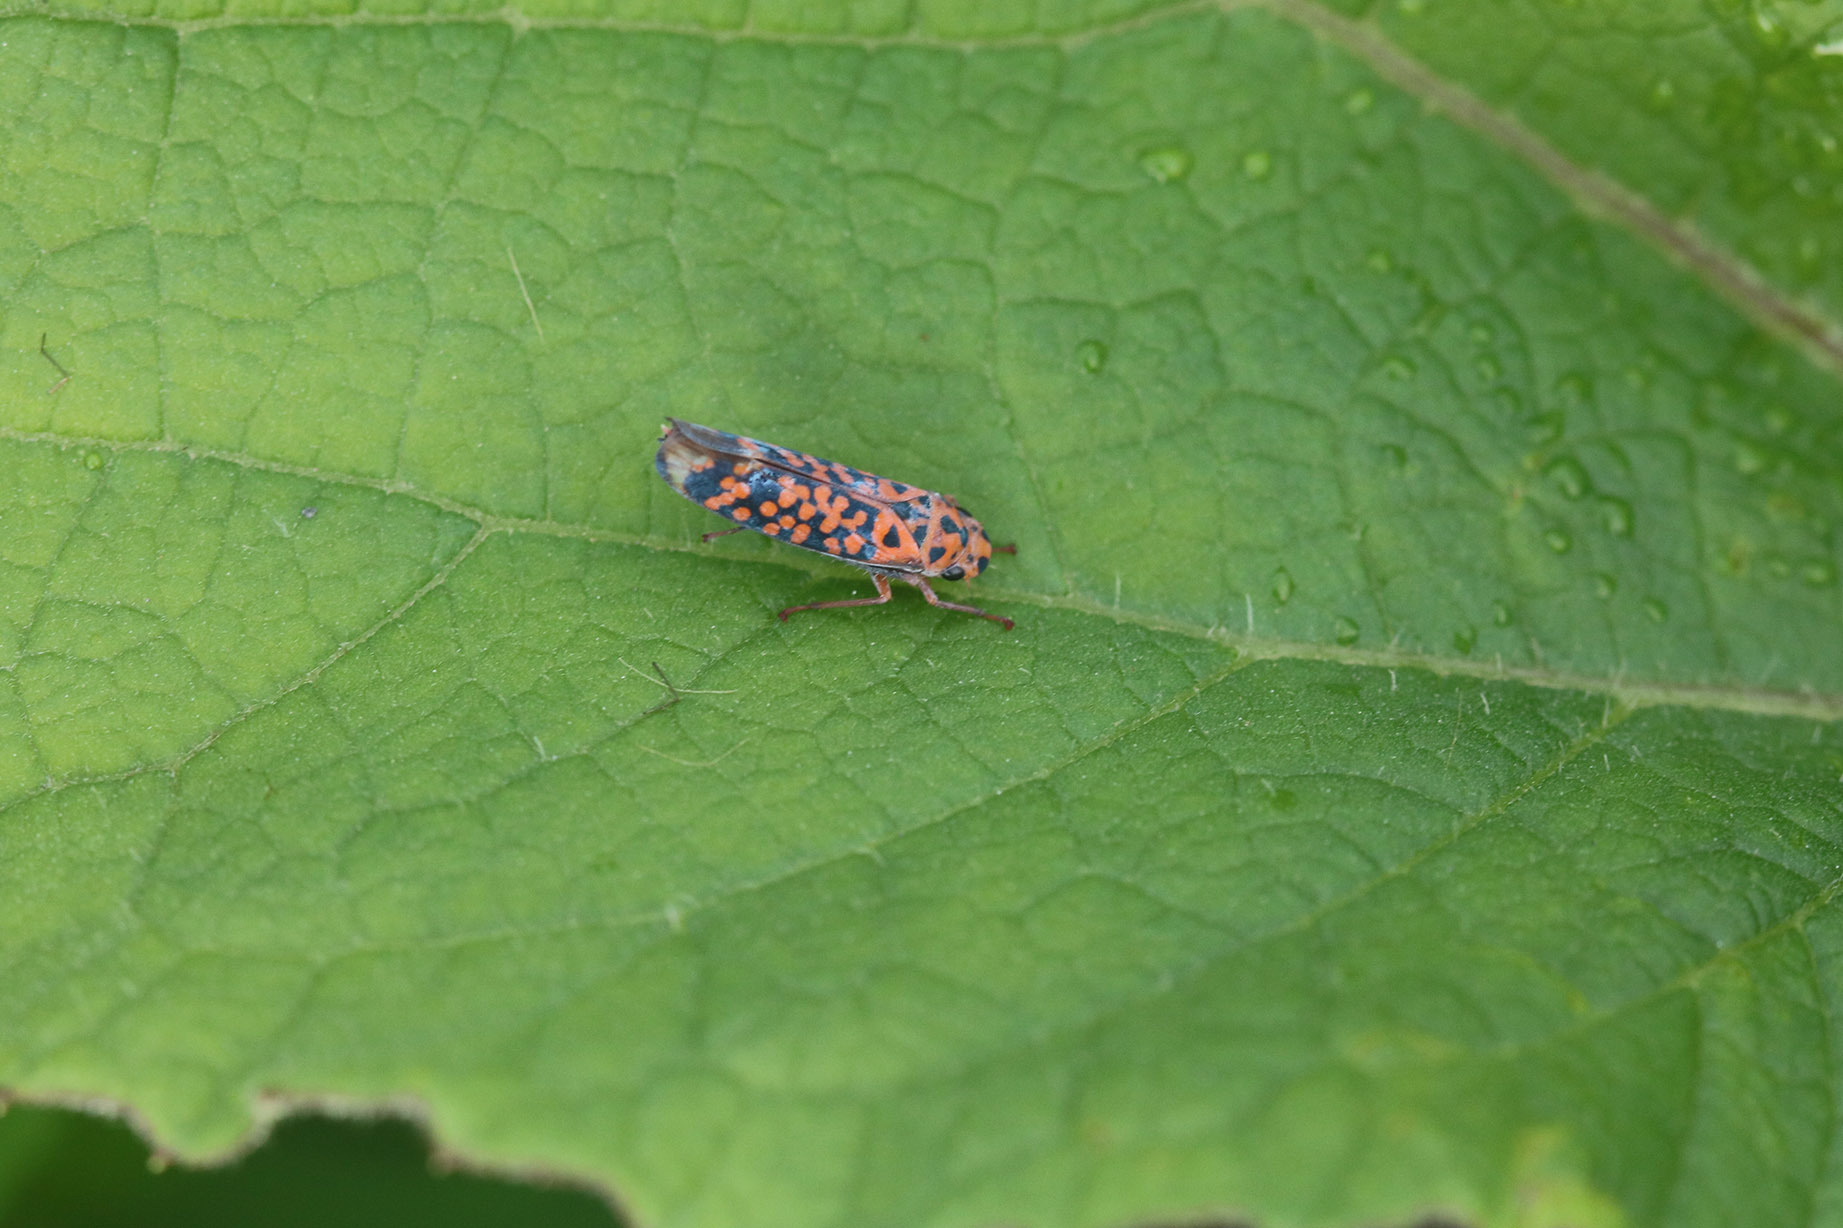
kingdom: Animalia
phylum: Arthropoda
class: Insecta
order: Hemiptera
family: Cicadellidae
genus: Pawiloma
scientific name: Pawiloma victima
